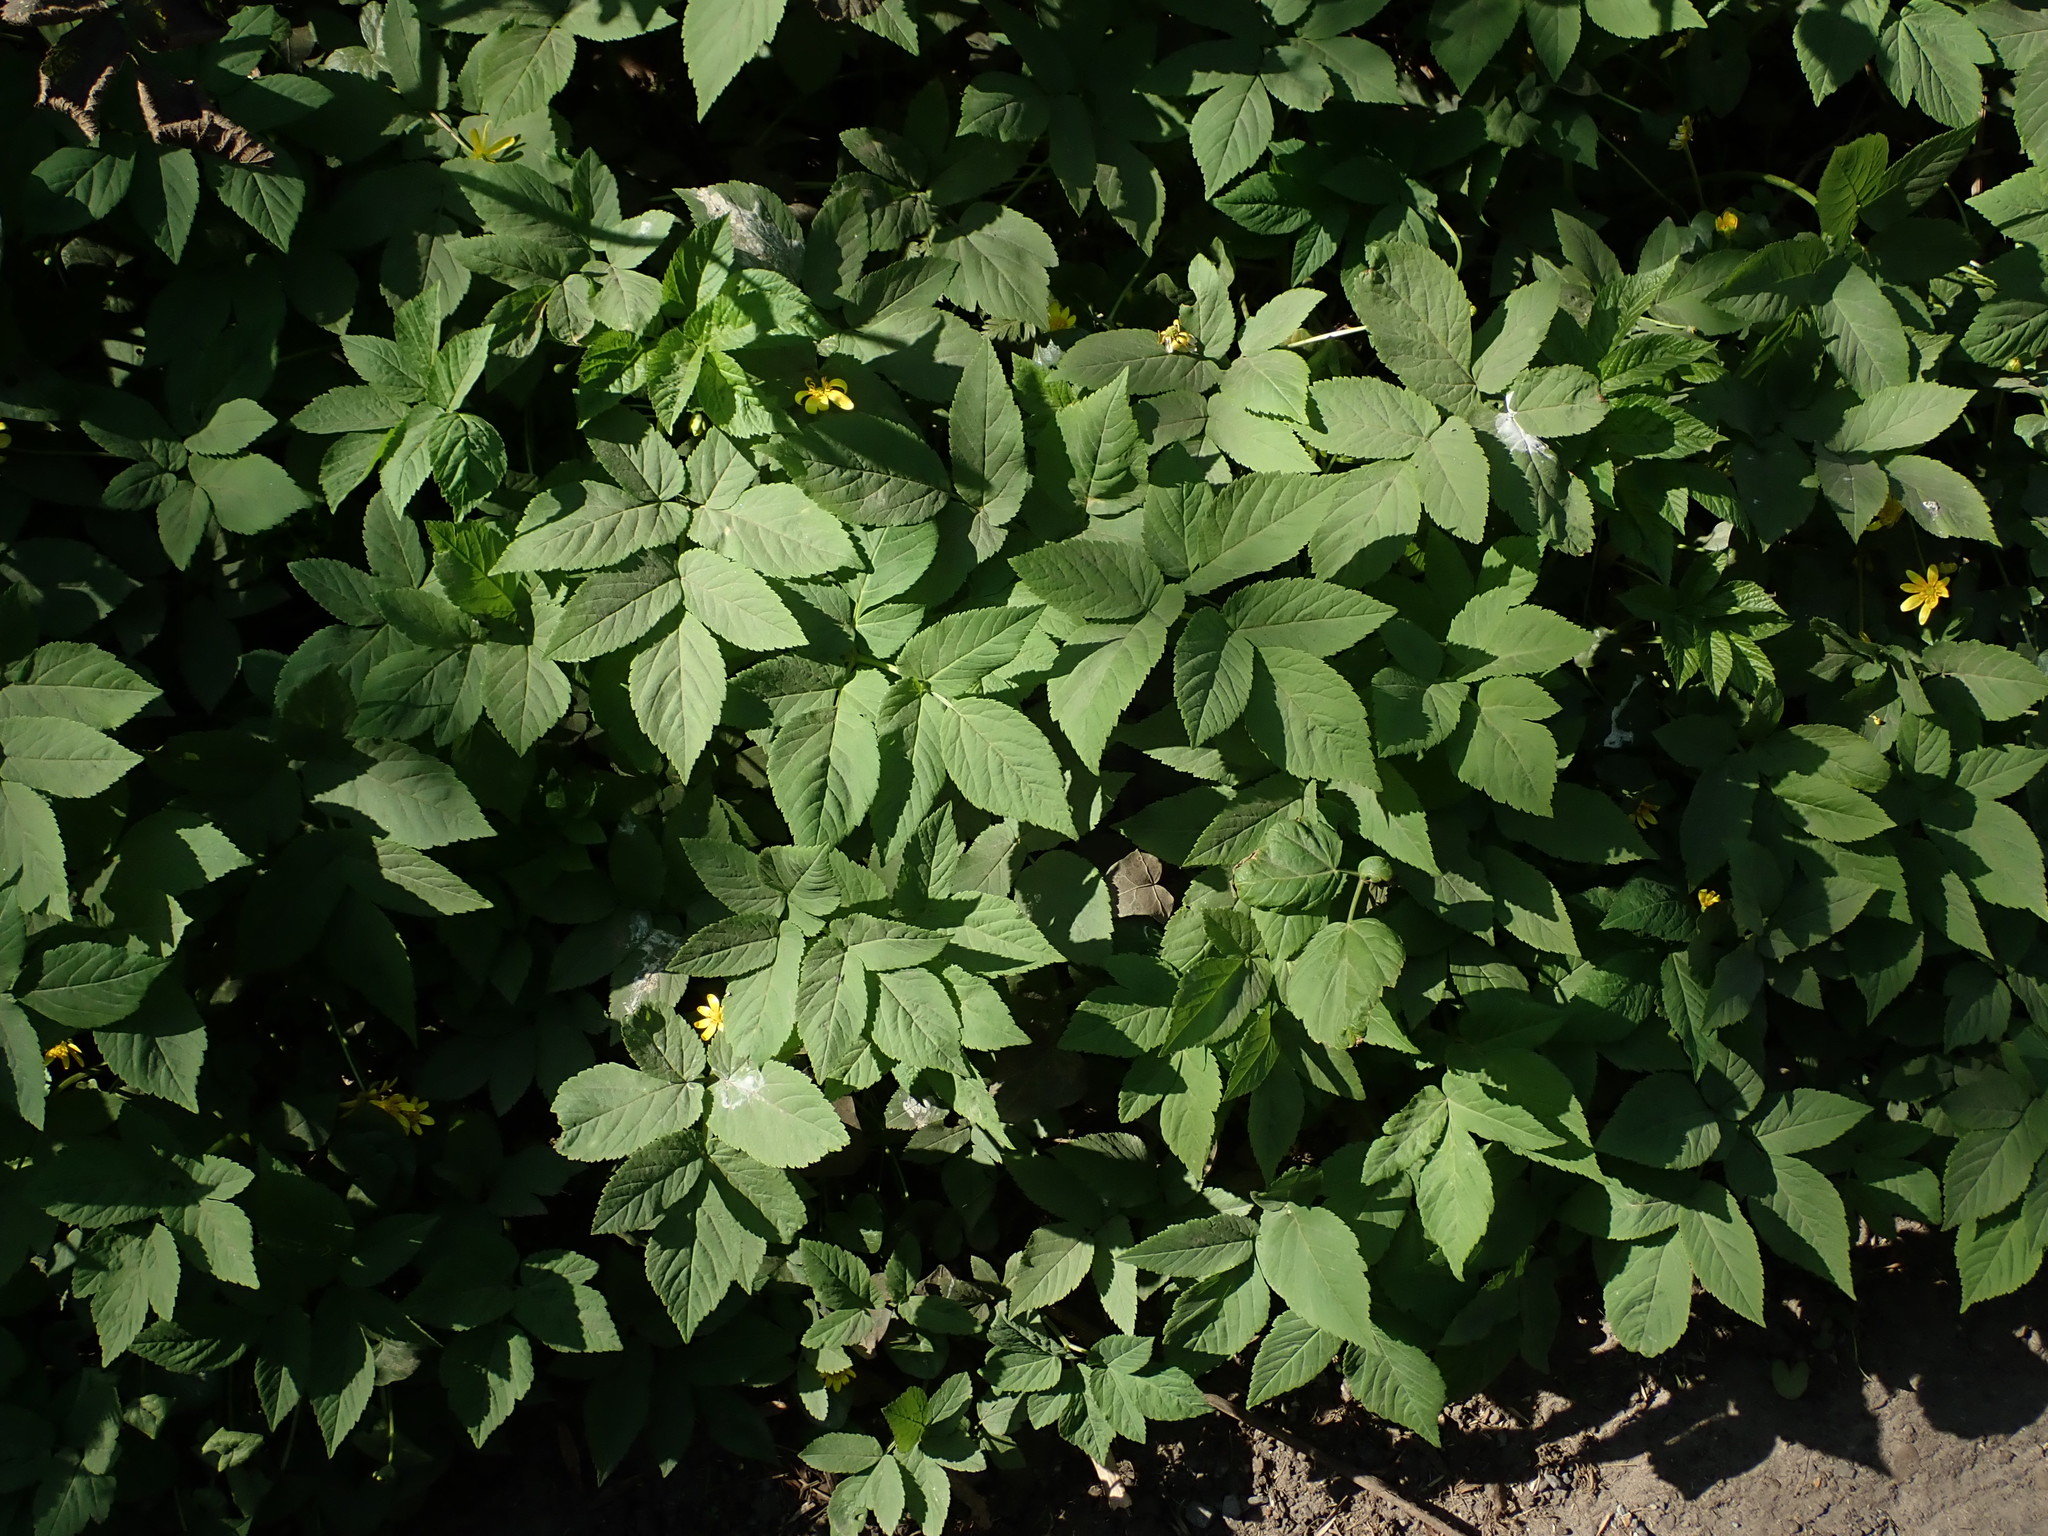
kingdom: Plantae
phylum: Tracheophyta
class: Magnoliopsida
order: Apiales
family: Apiaceae
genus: Aegopodium
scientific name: Aegopodium podagraria
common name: Ground-elder
